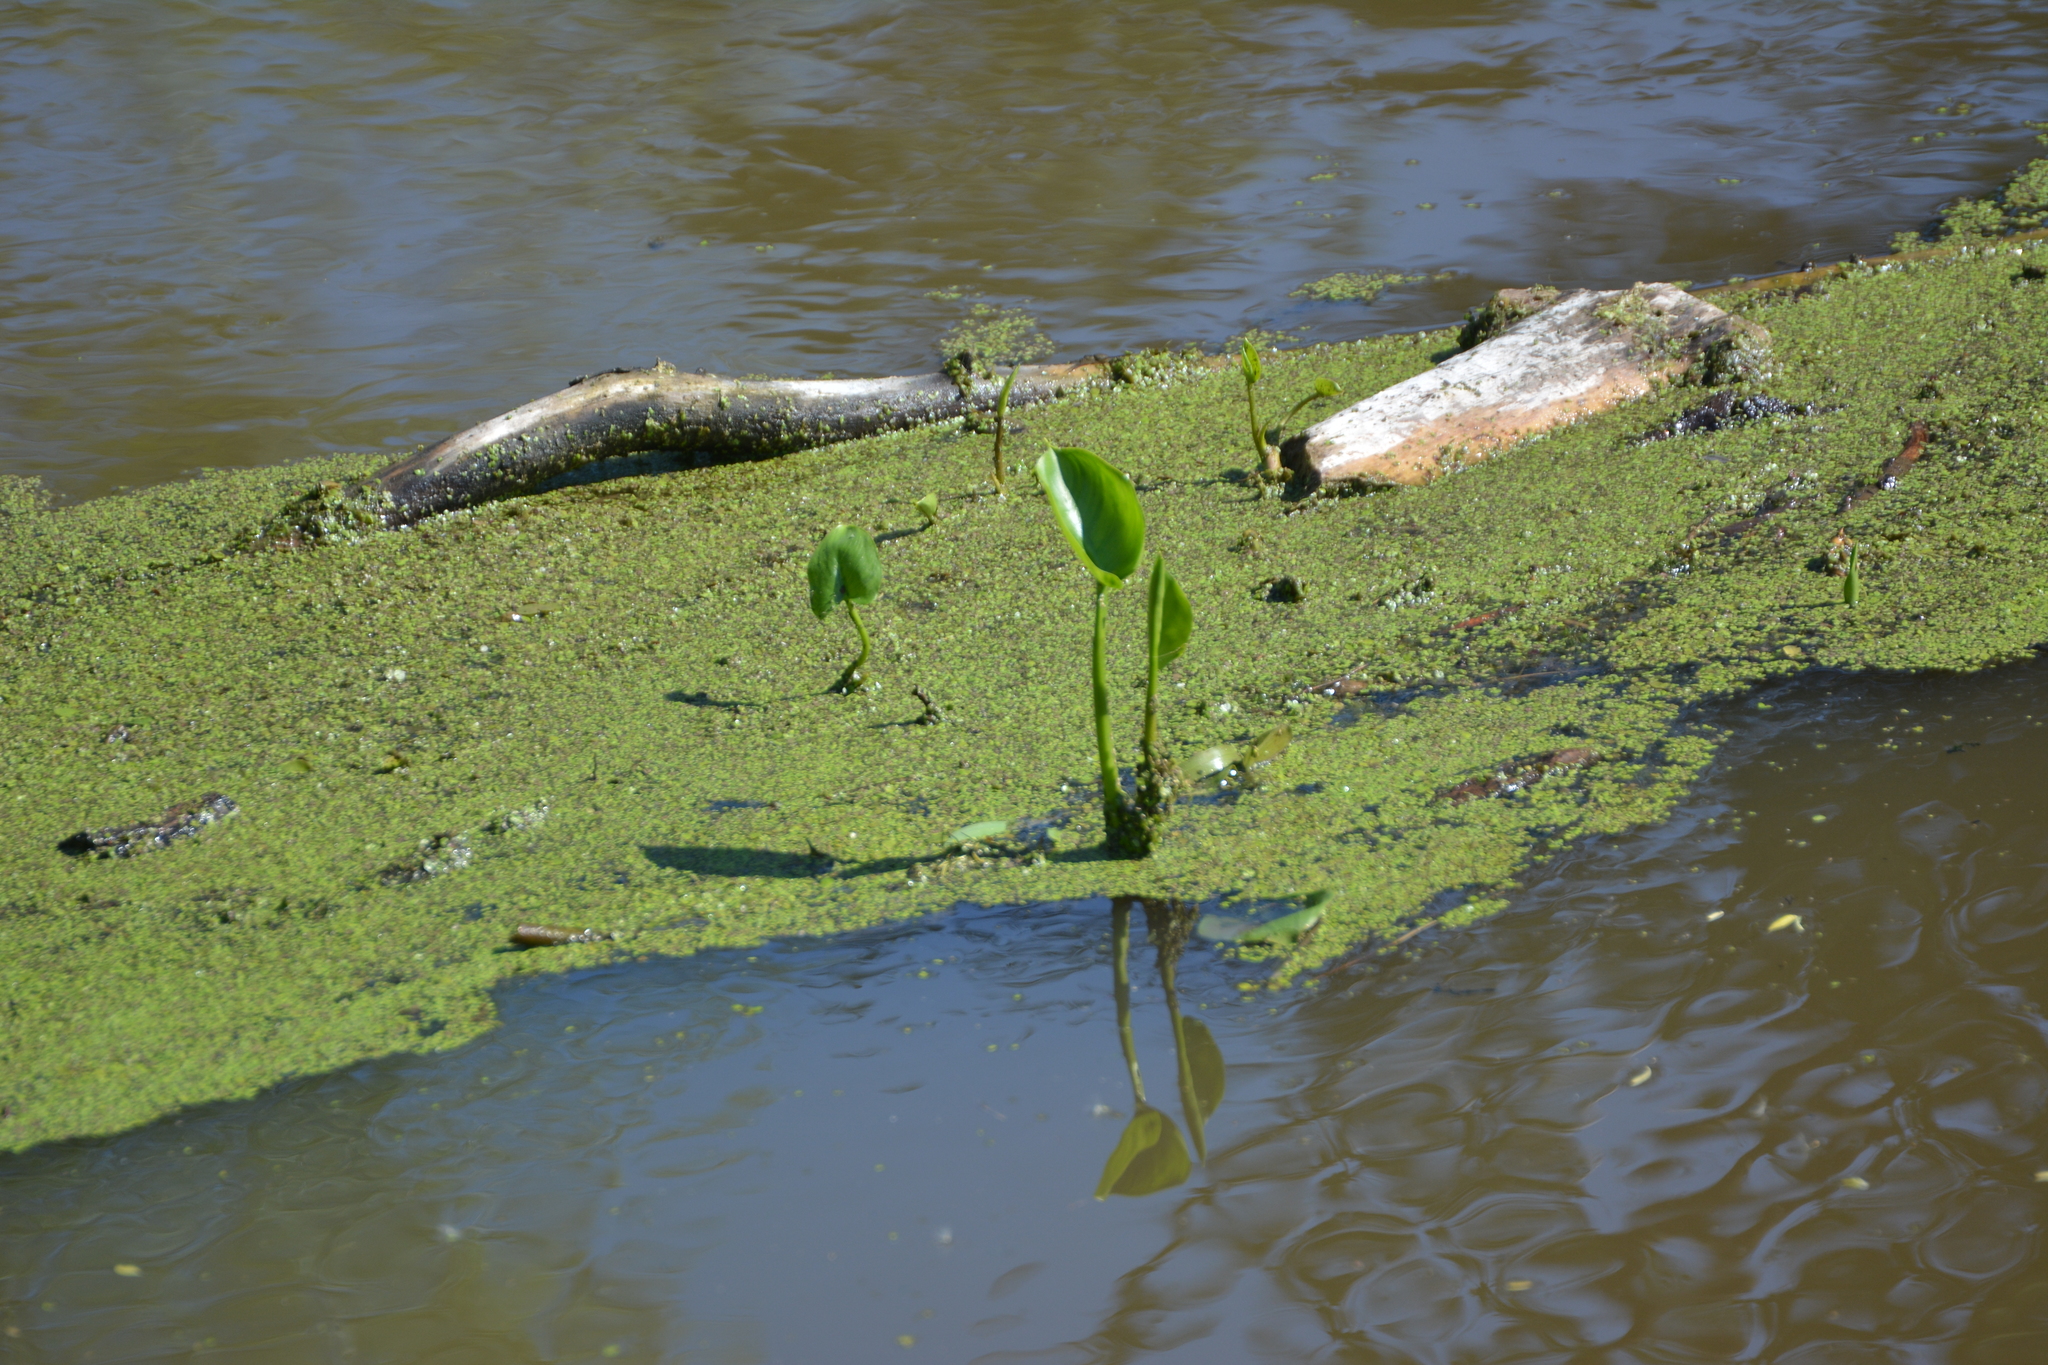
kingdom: Plantae
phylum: Tracheophyta
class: Liliopsida
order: Alismatales
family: Araceae
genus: Calla
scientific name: Calla palustris
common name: Bog arum
